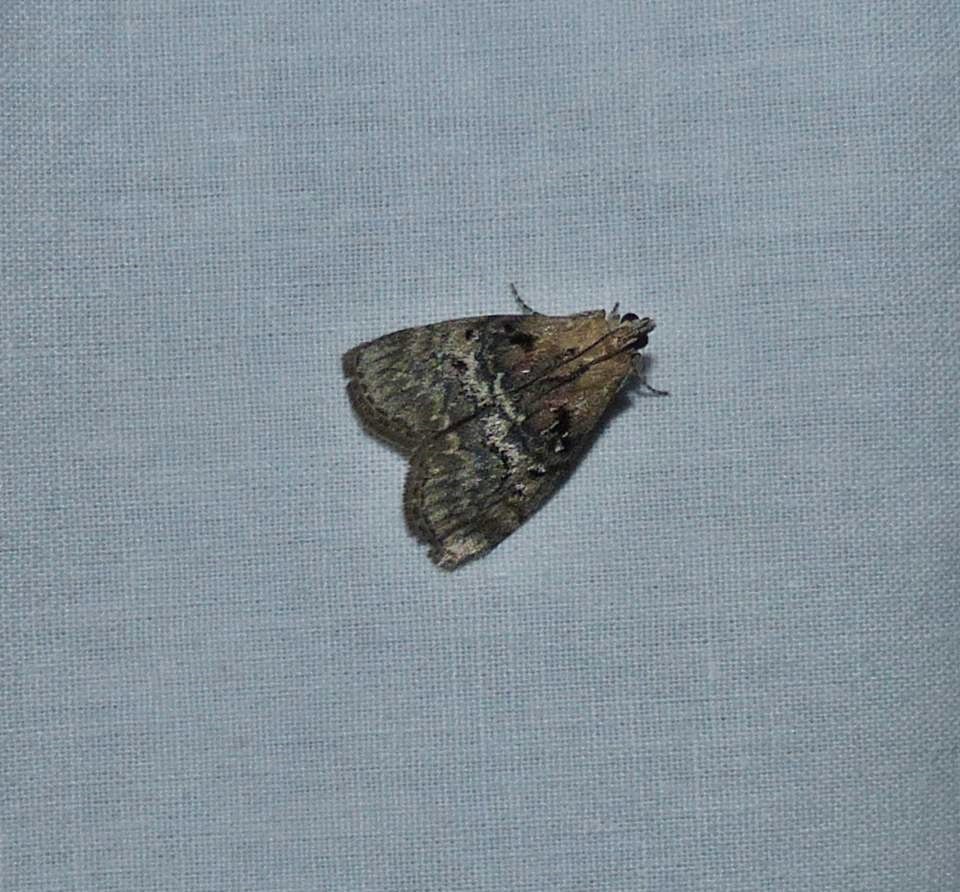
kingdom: Animalia
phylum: Arthropoda
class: Insecta
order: Lepidoptera
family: Pyralidae
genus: Pococera
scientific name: Pococera expandens
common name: Striped oak webworm moth
